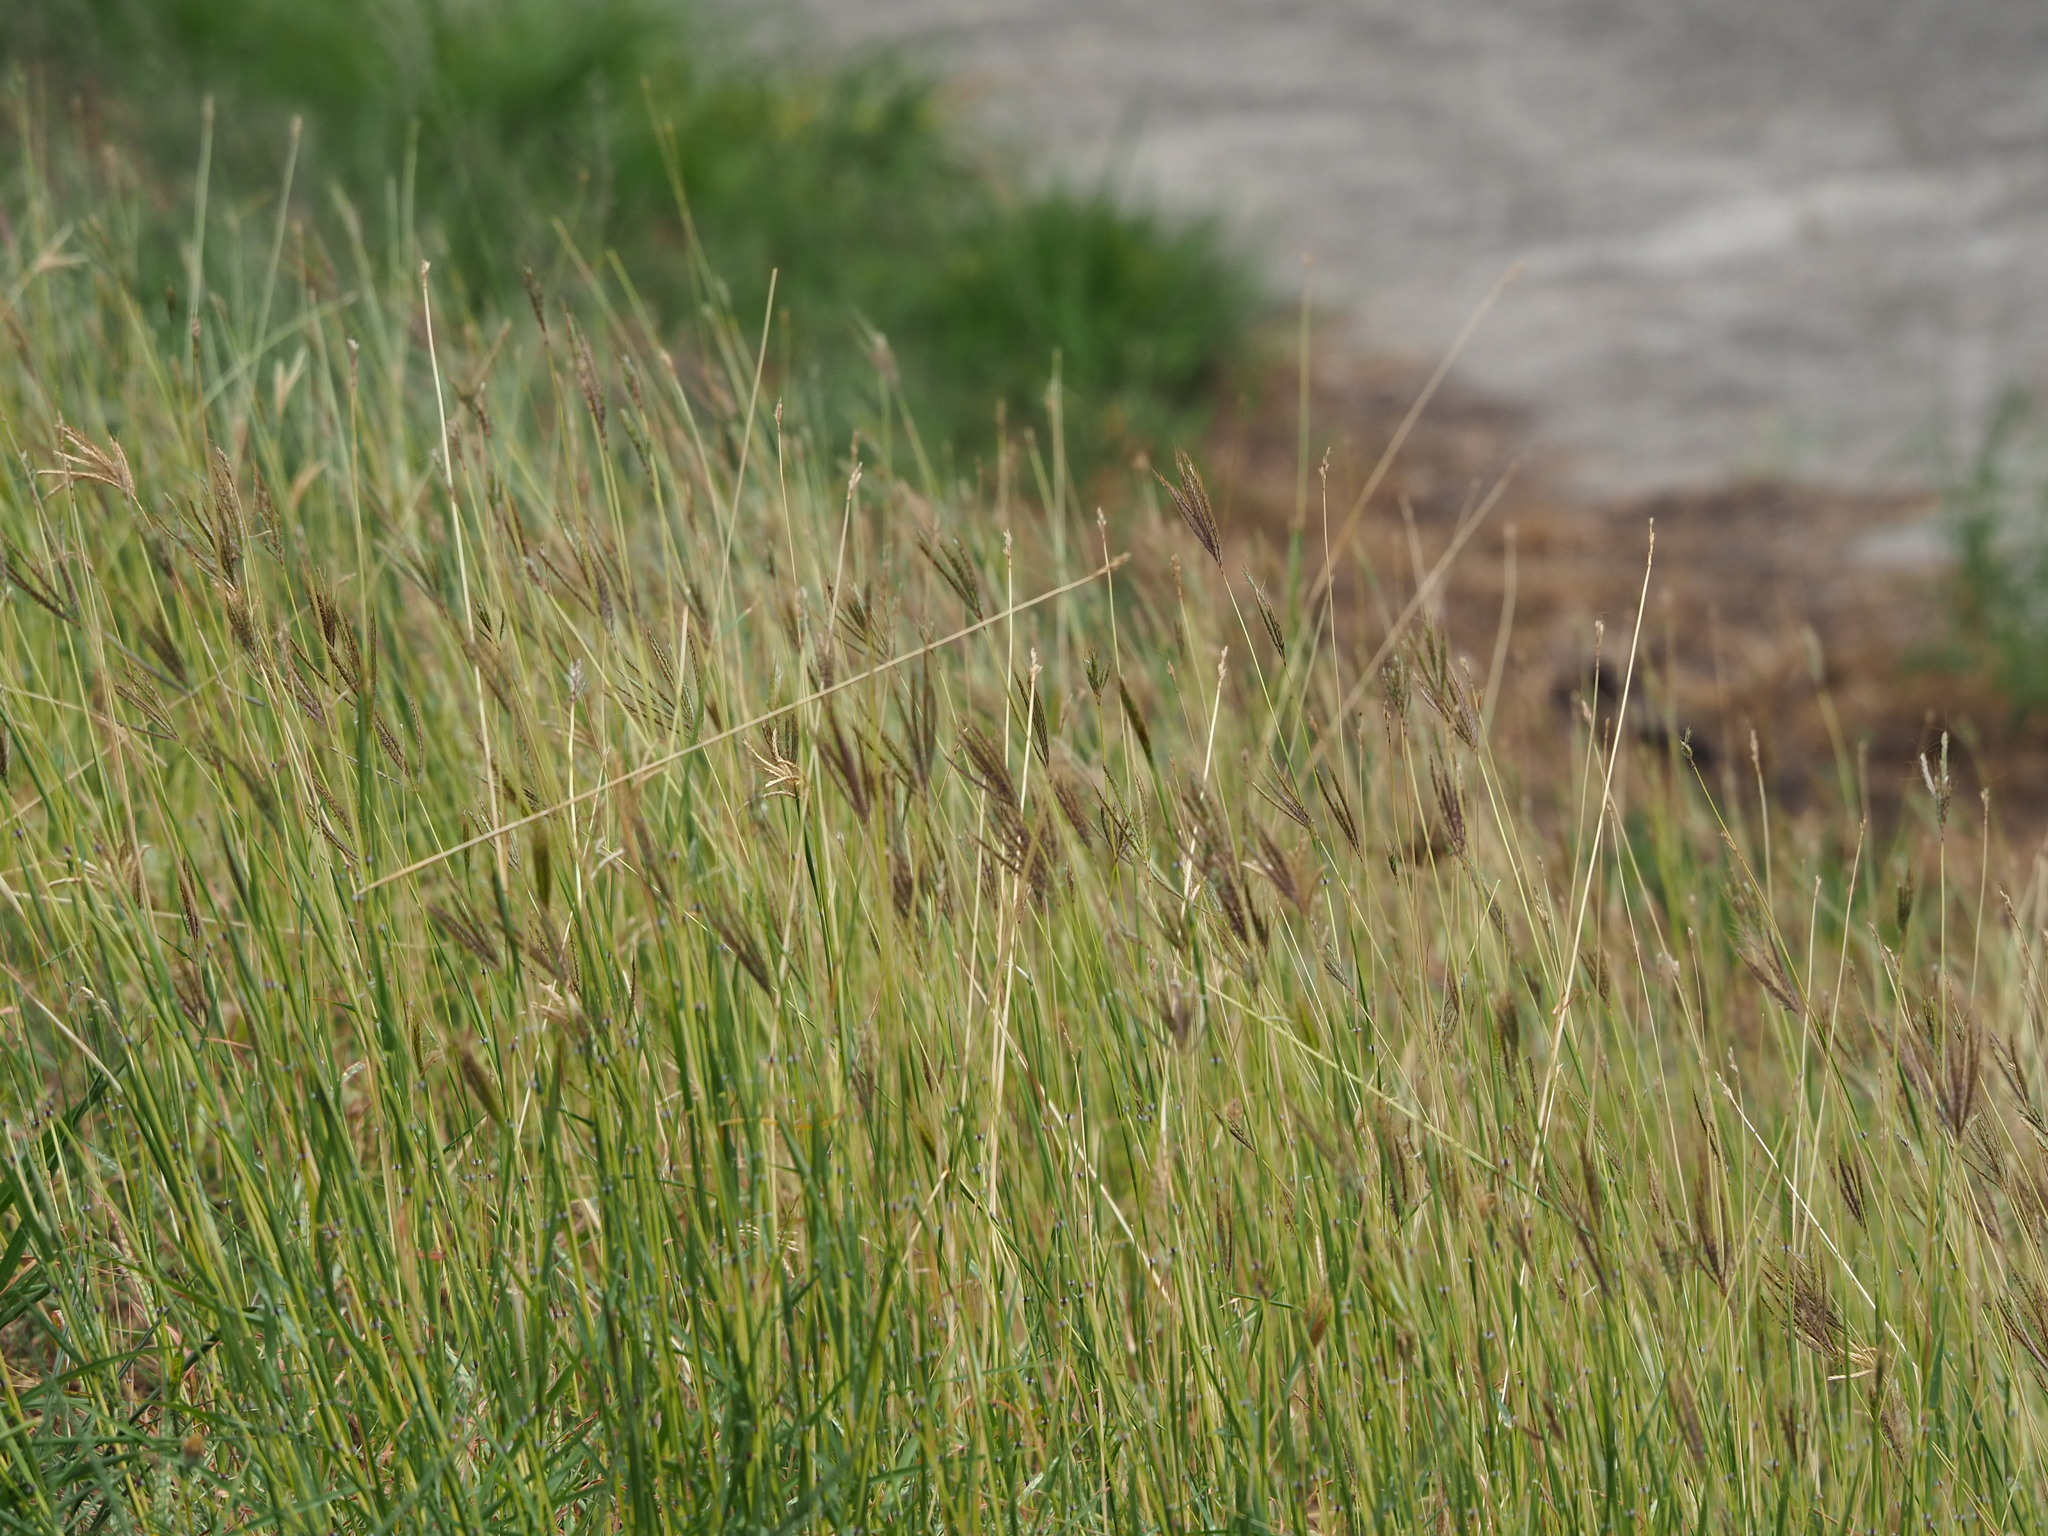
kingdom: Plantae
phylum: Tracheophyta
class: Liliopsida
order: Poales
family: Poaceae
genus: Dichanthium
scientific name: Dichanthium annulatum
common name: Kleberg's bluestem
